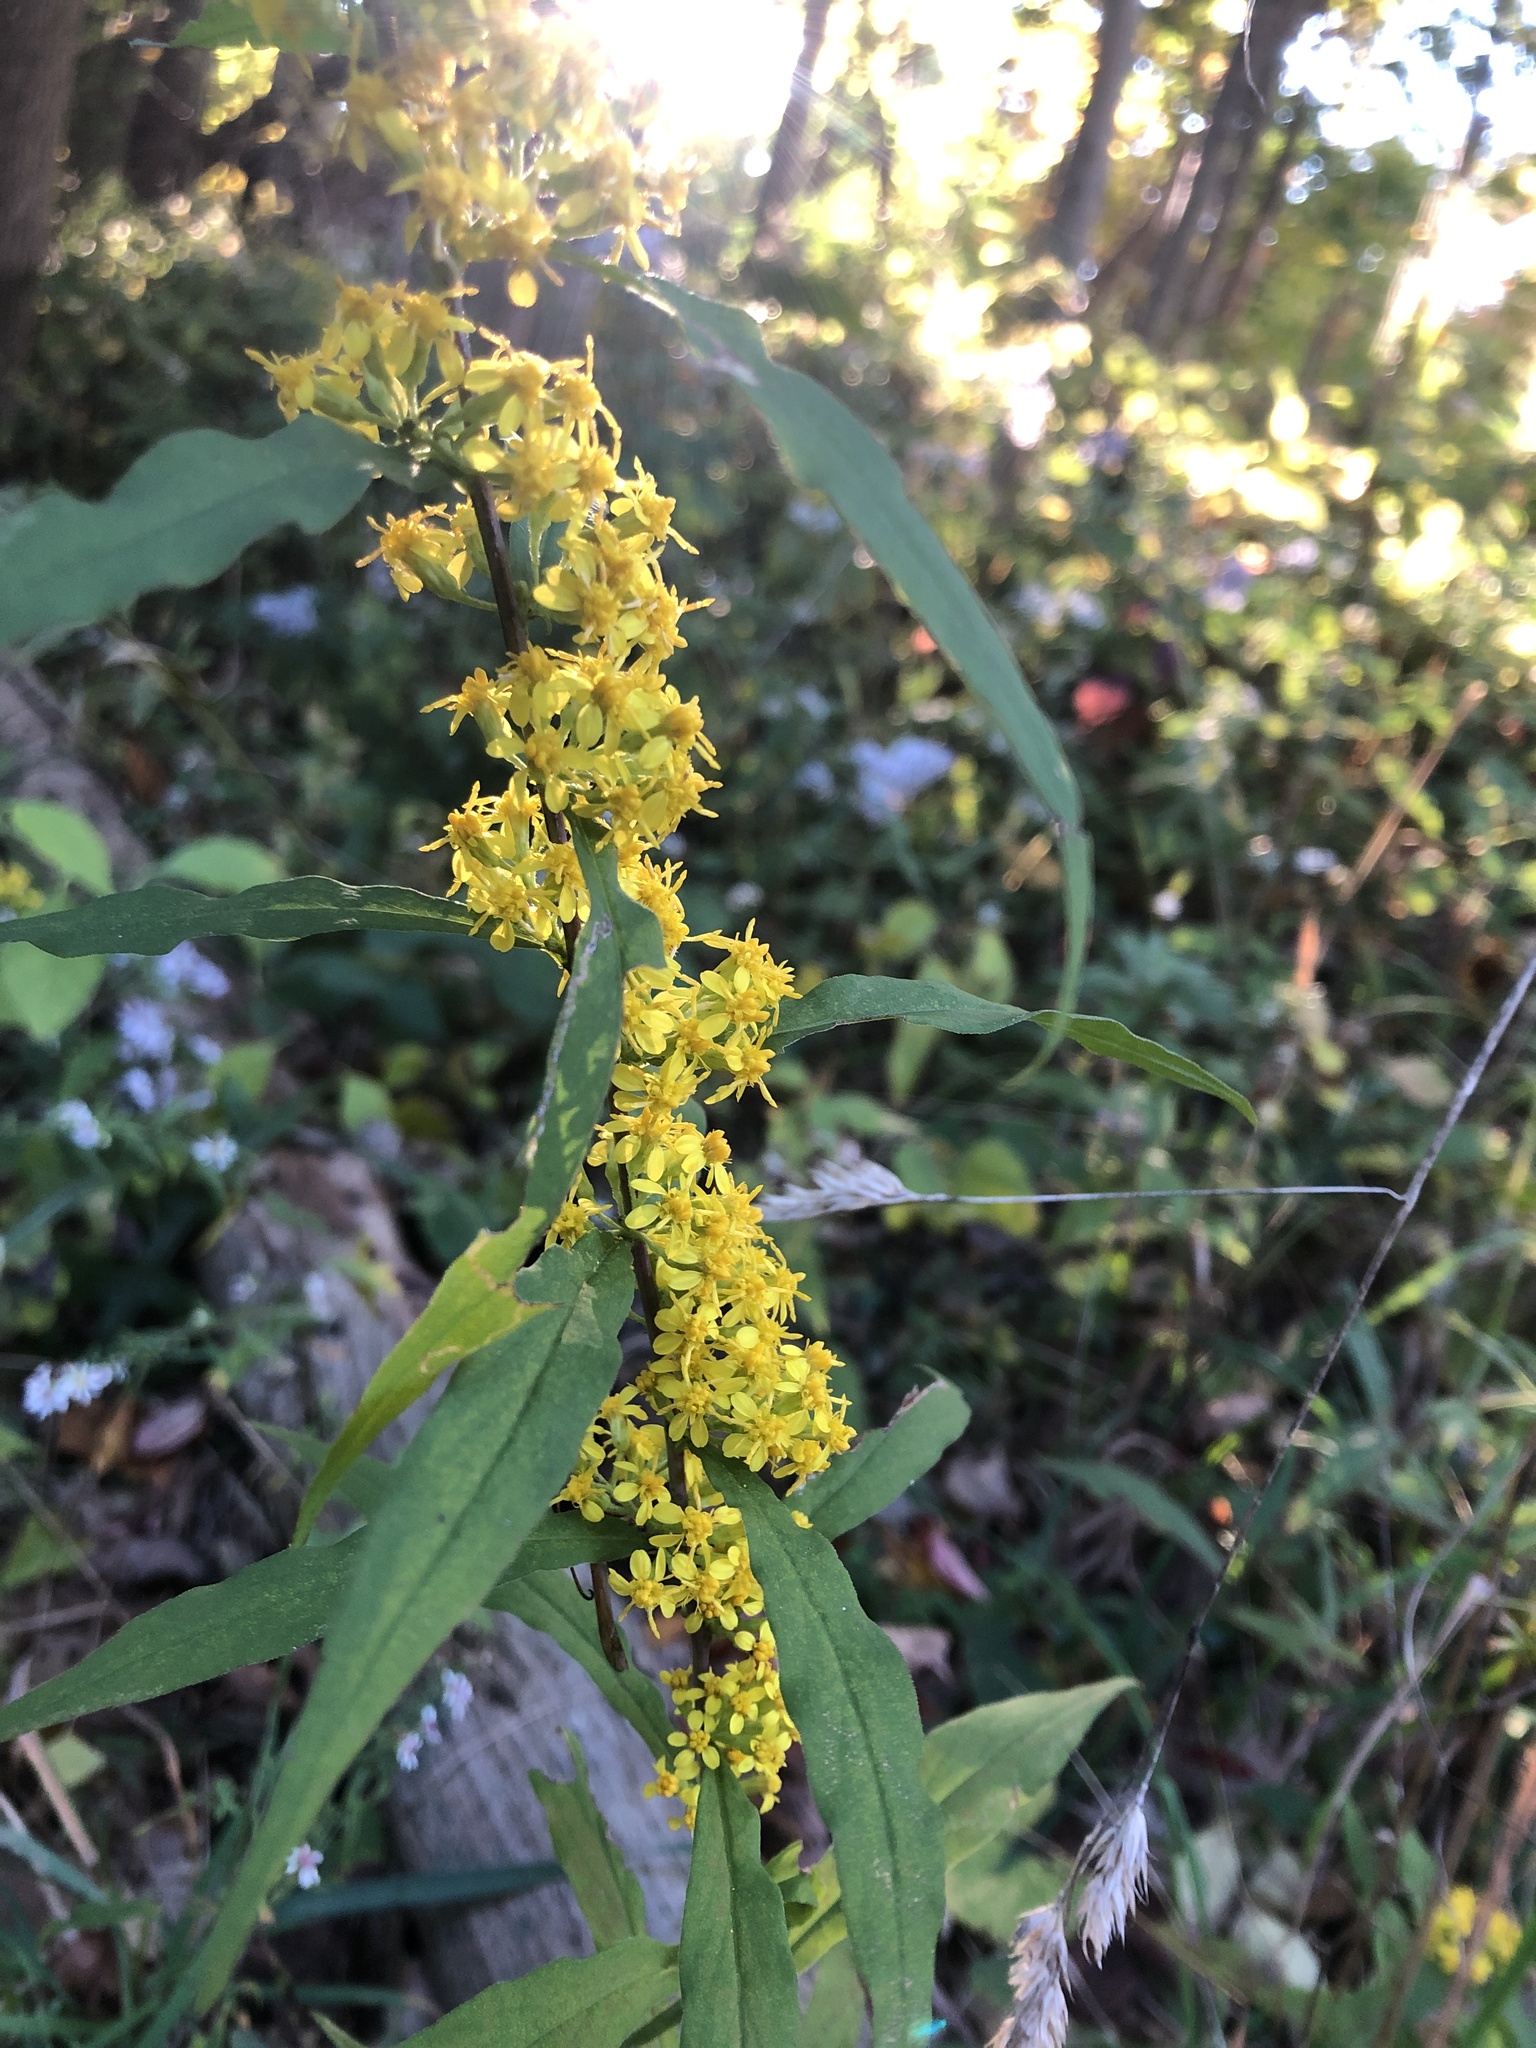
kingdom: Plantae
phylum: Tracheophyta
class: Magnoliopsida
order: Asterales
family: Asteraceae
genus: Solidago
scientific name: Solidago caesia
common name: Woodland goldenrod
